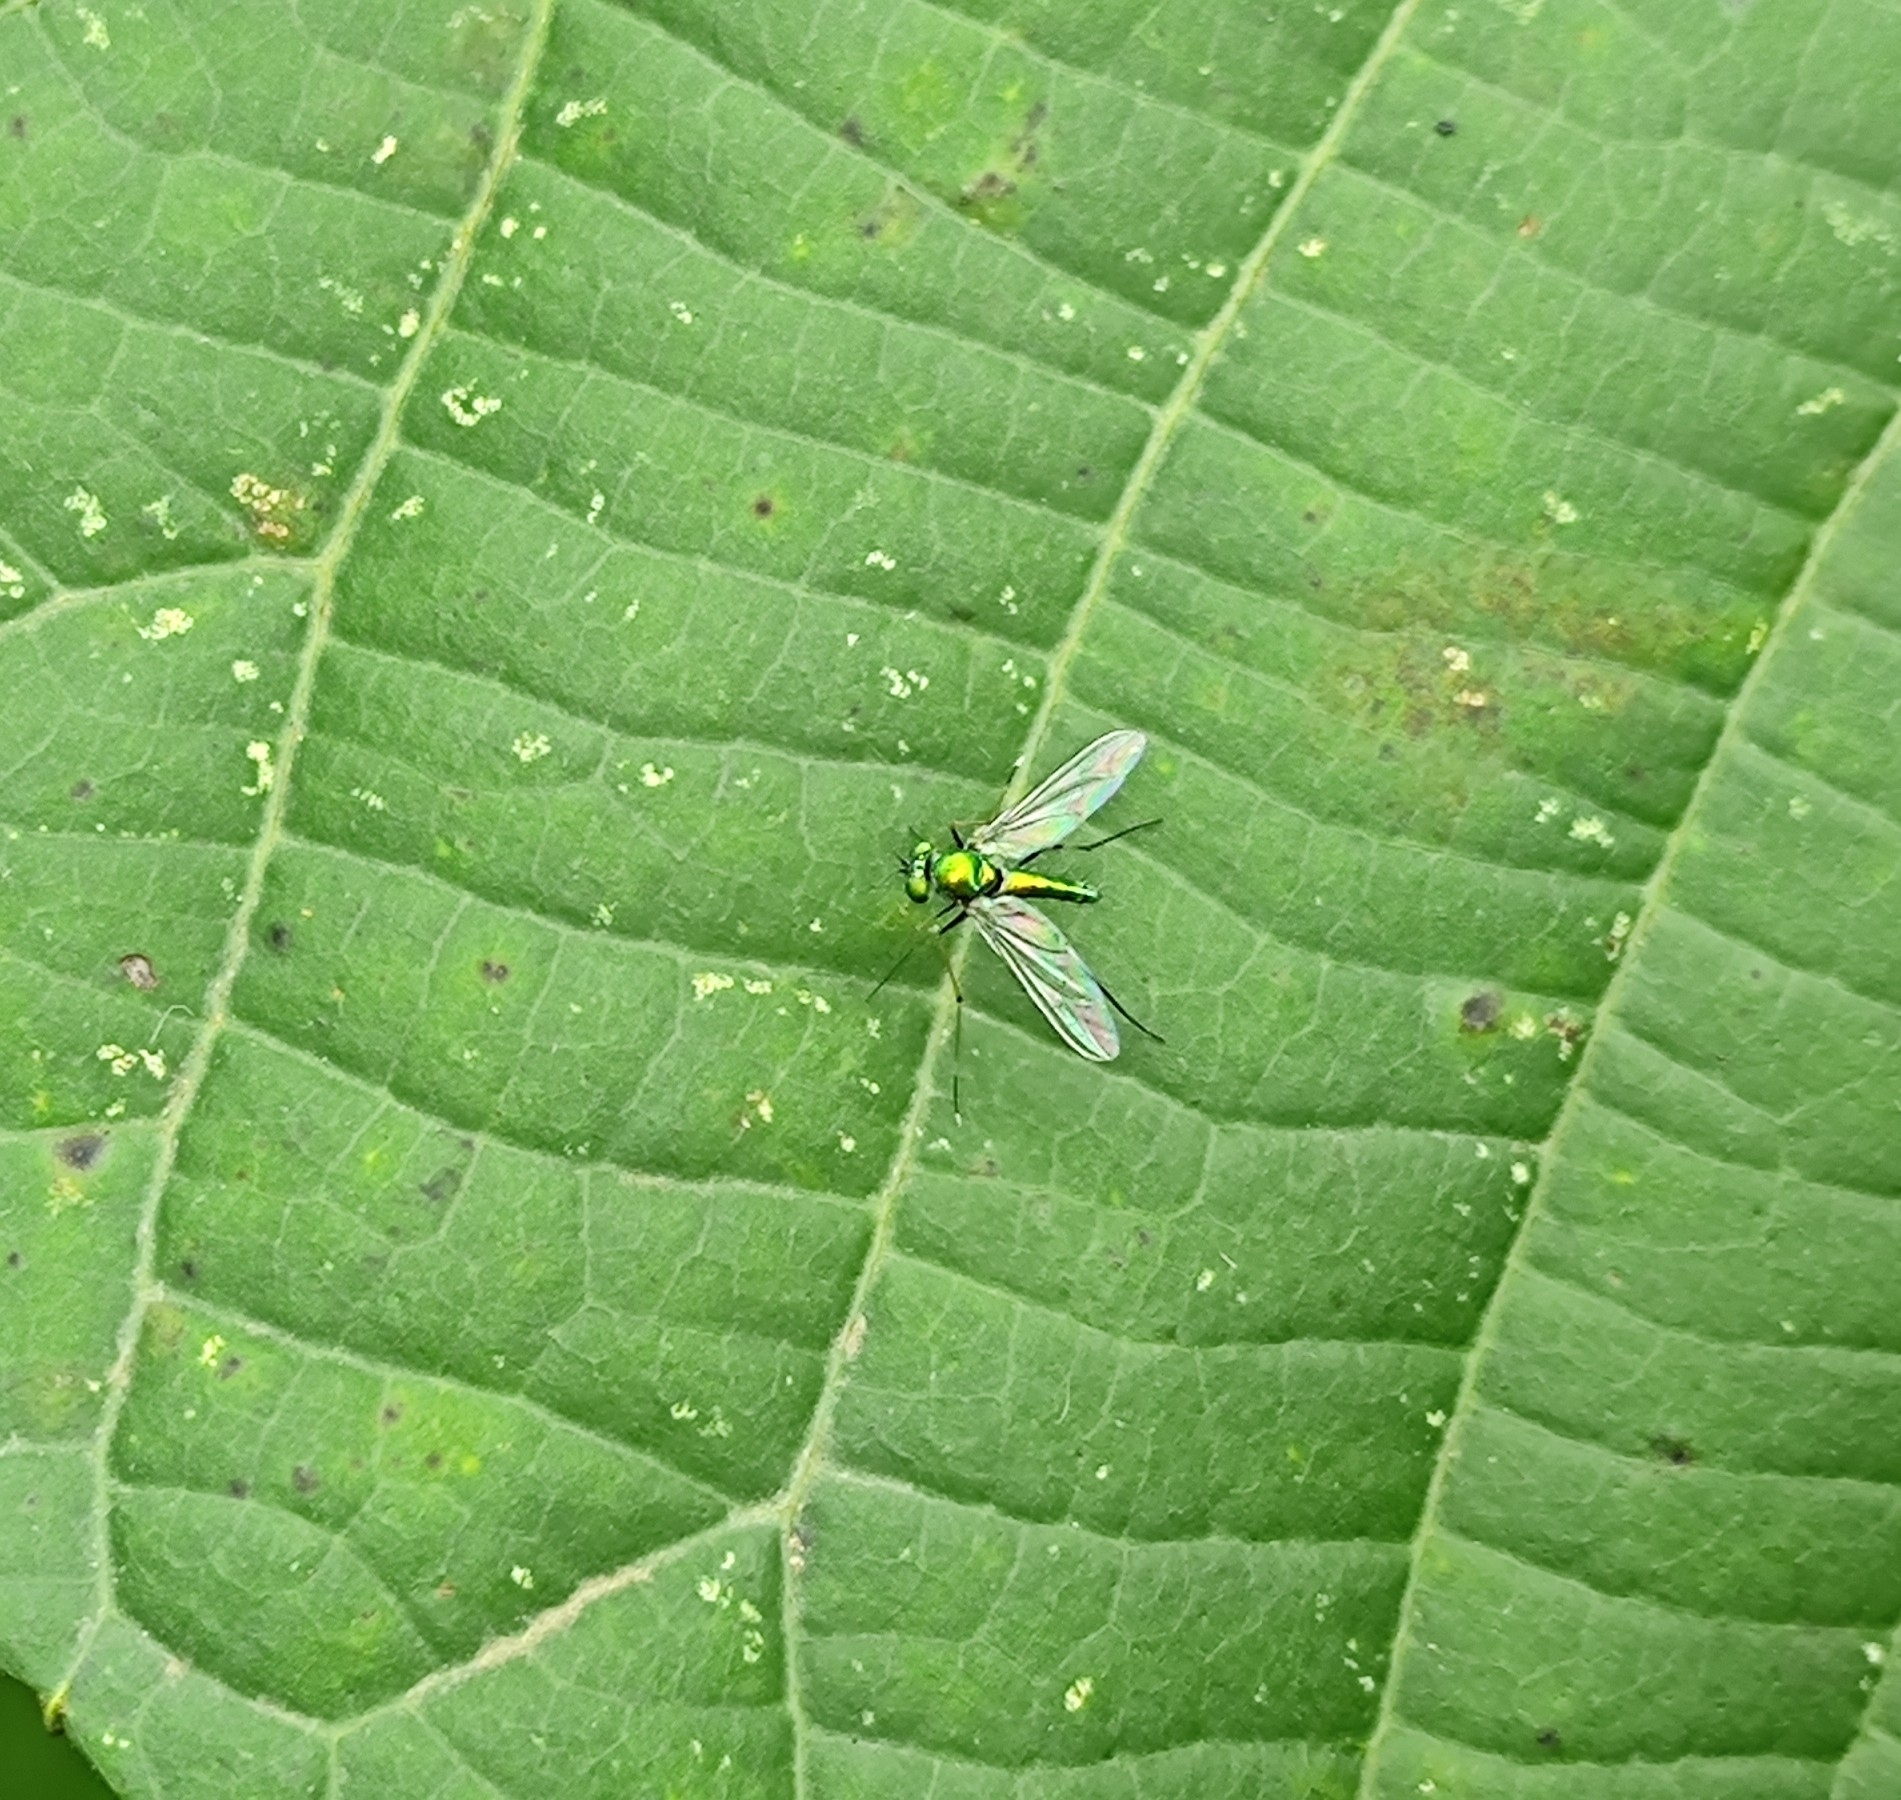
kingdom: Animalia
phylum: Arthropoda
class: Insecta
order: Diptera
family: Dolichopodidae
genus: Chrysosoma
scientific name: Chrysosoma leucopogon
